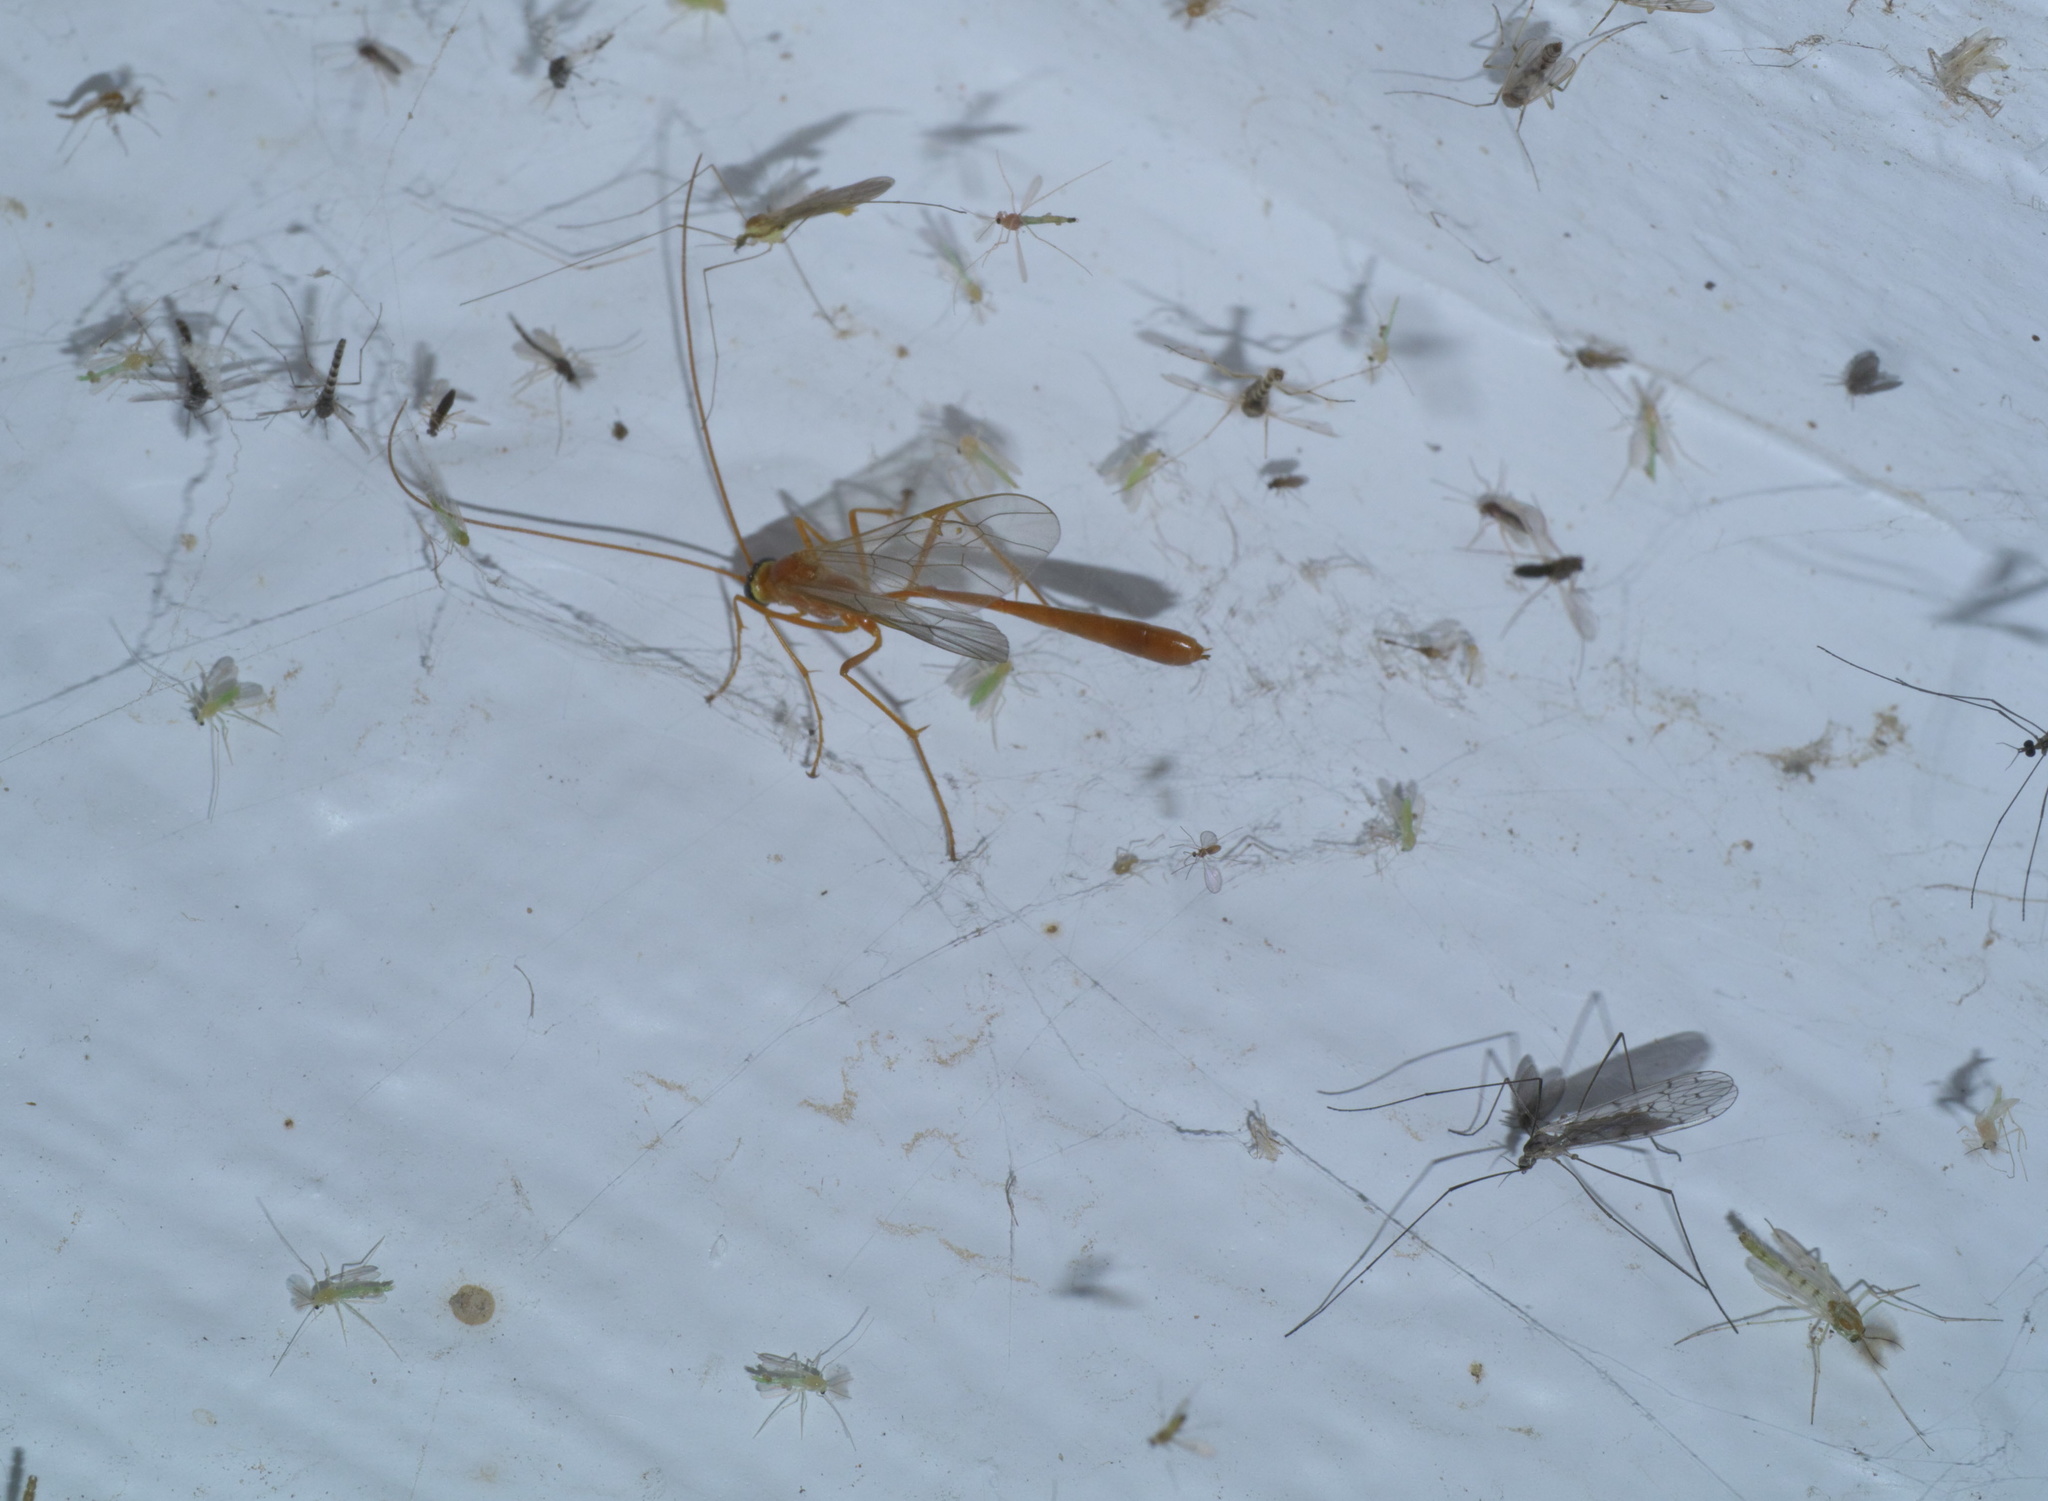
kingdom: Animalia
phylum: Arthropoda
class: Insecta
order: Hymenoptera
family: Ichneumonidae
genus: Enicospilus
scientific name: Enicospilus purgatus
